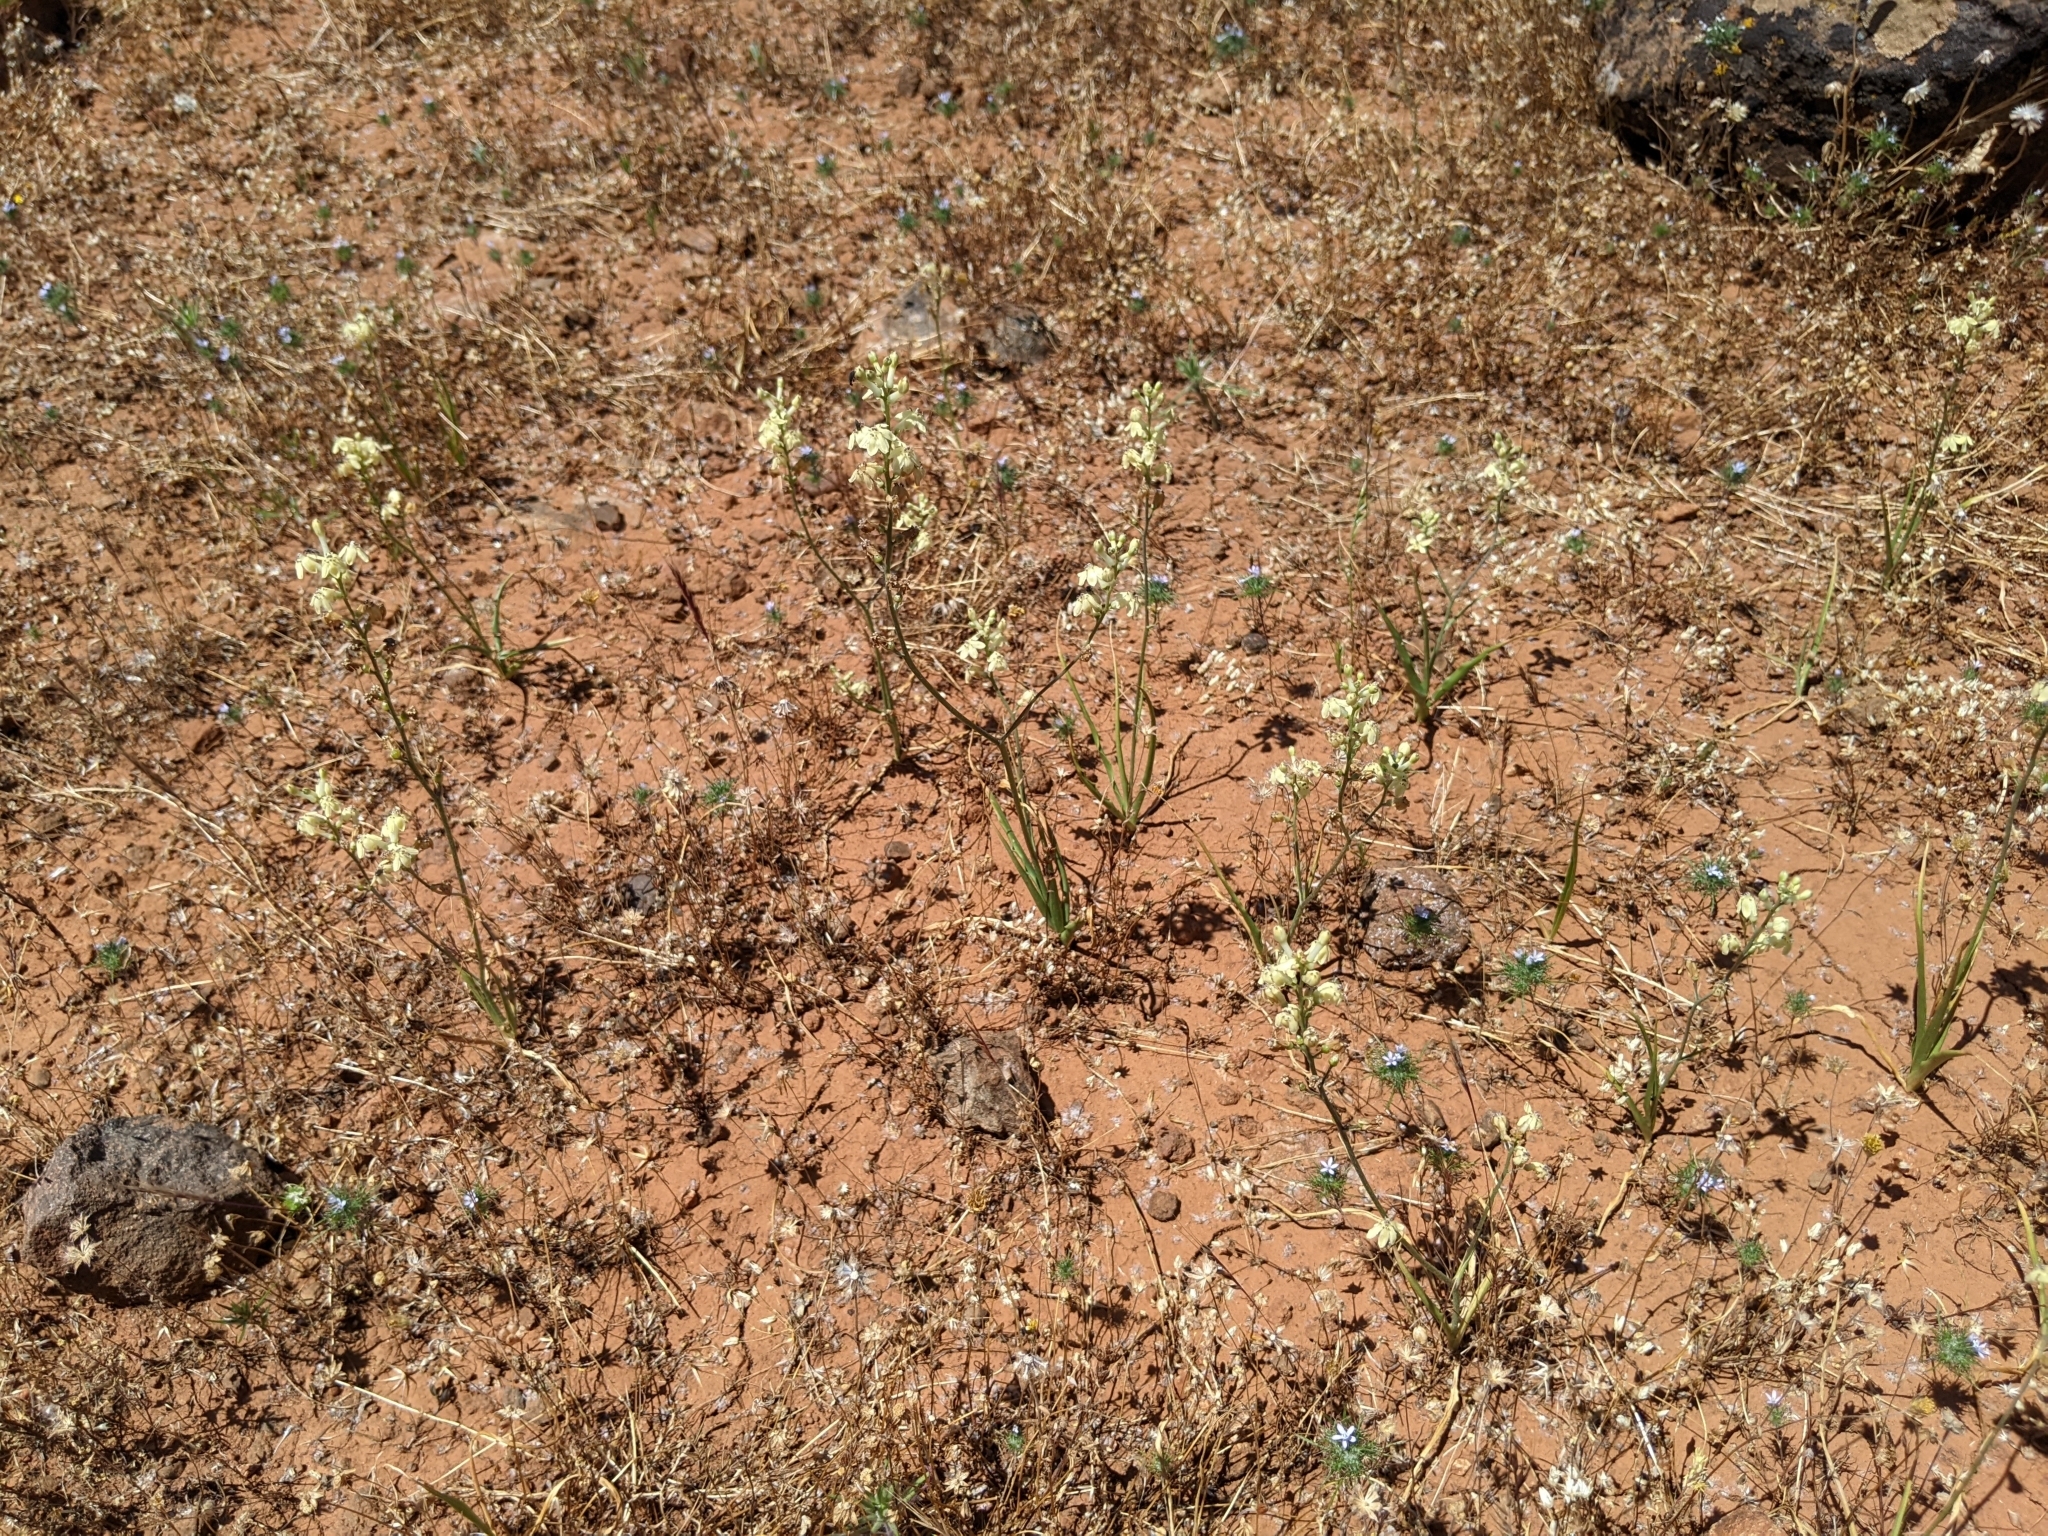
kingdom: Plantae
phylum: Tracheophyta
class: Liliopsida
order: Asparagales
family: Tecophilaeaceae
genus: Odontostomum
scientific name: Odontostomum hartwegii
